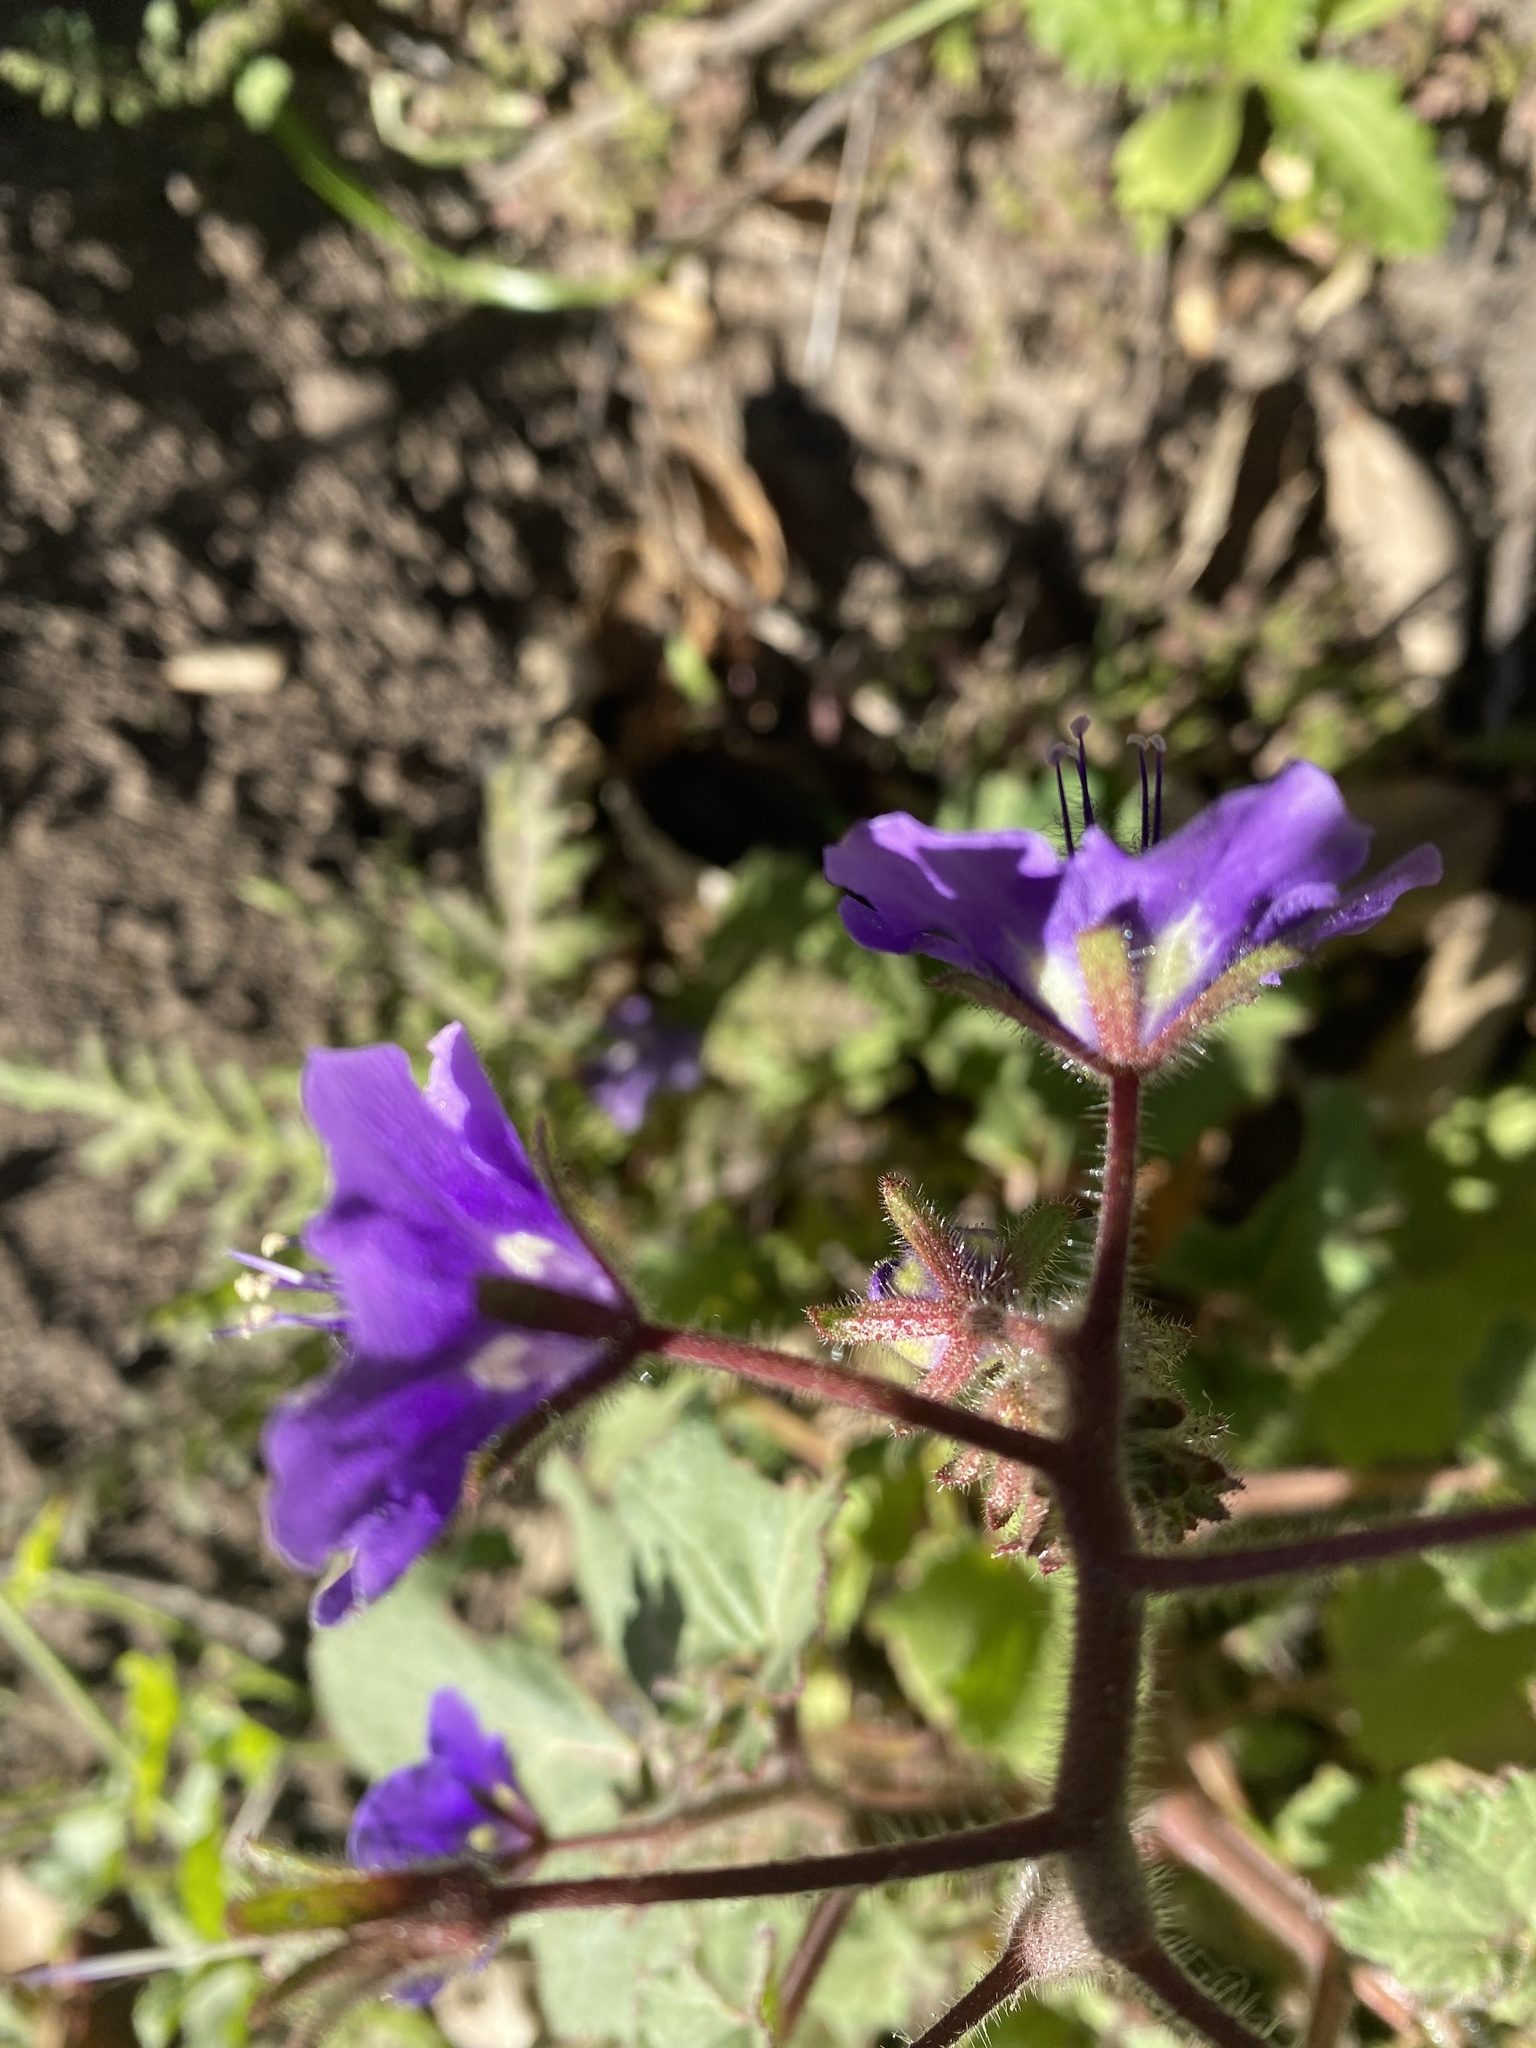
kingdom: Plantae
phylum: Tracheophyta
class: Magnoliopsida
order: Boraginales
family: Hydrophyllaceae
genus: Phacelia
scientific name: Phacelia parryi
